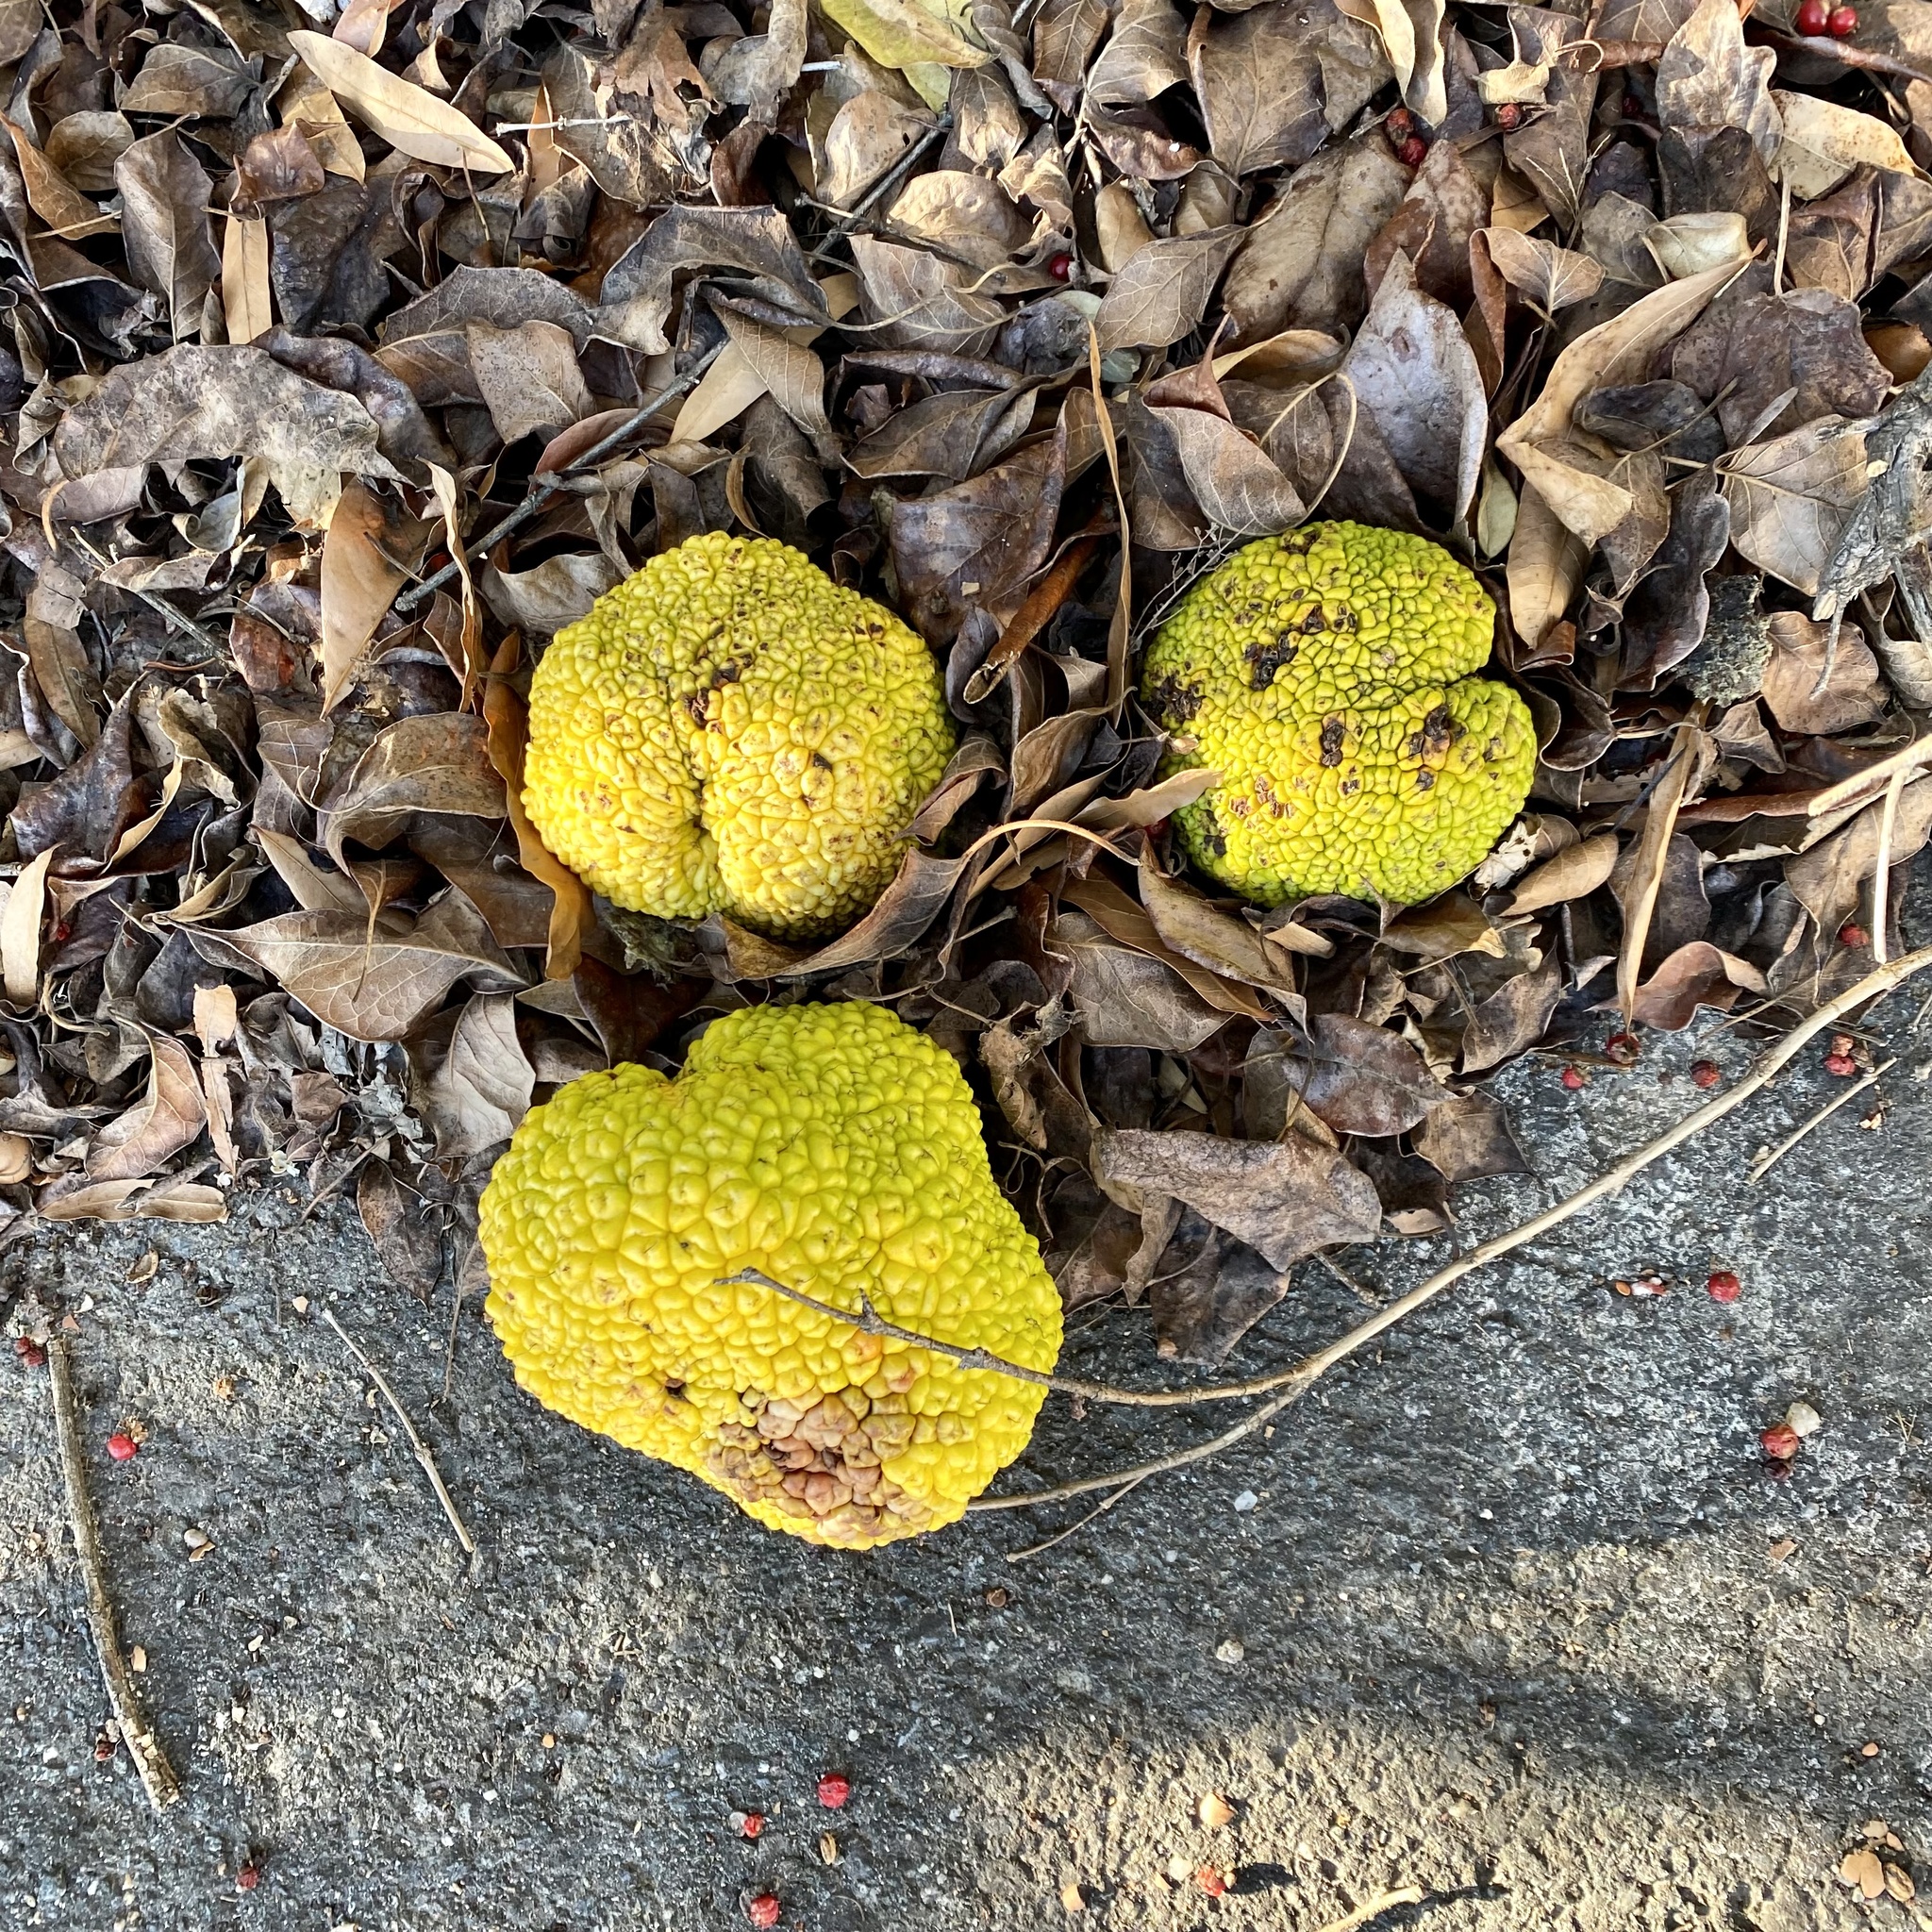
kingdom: Plantae
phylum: Tracheophyta
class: Magnoliopsida
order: Rosales
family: Moraceae
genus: Maclura
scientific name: Maclura pomifera
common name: Osage-orange
